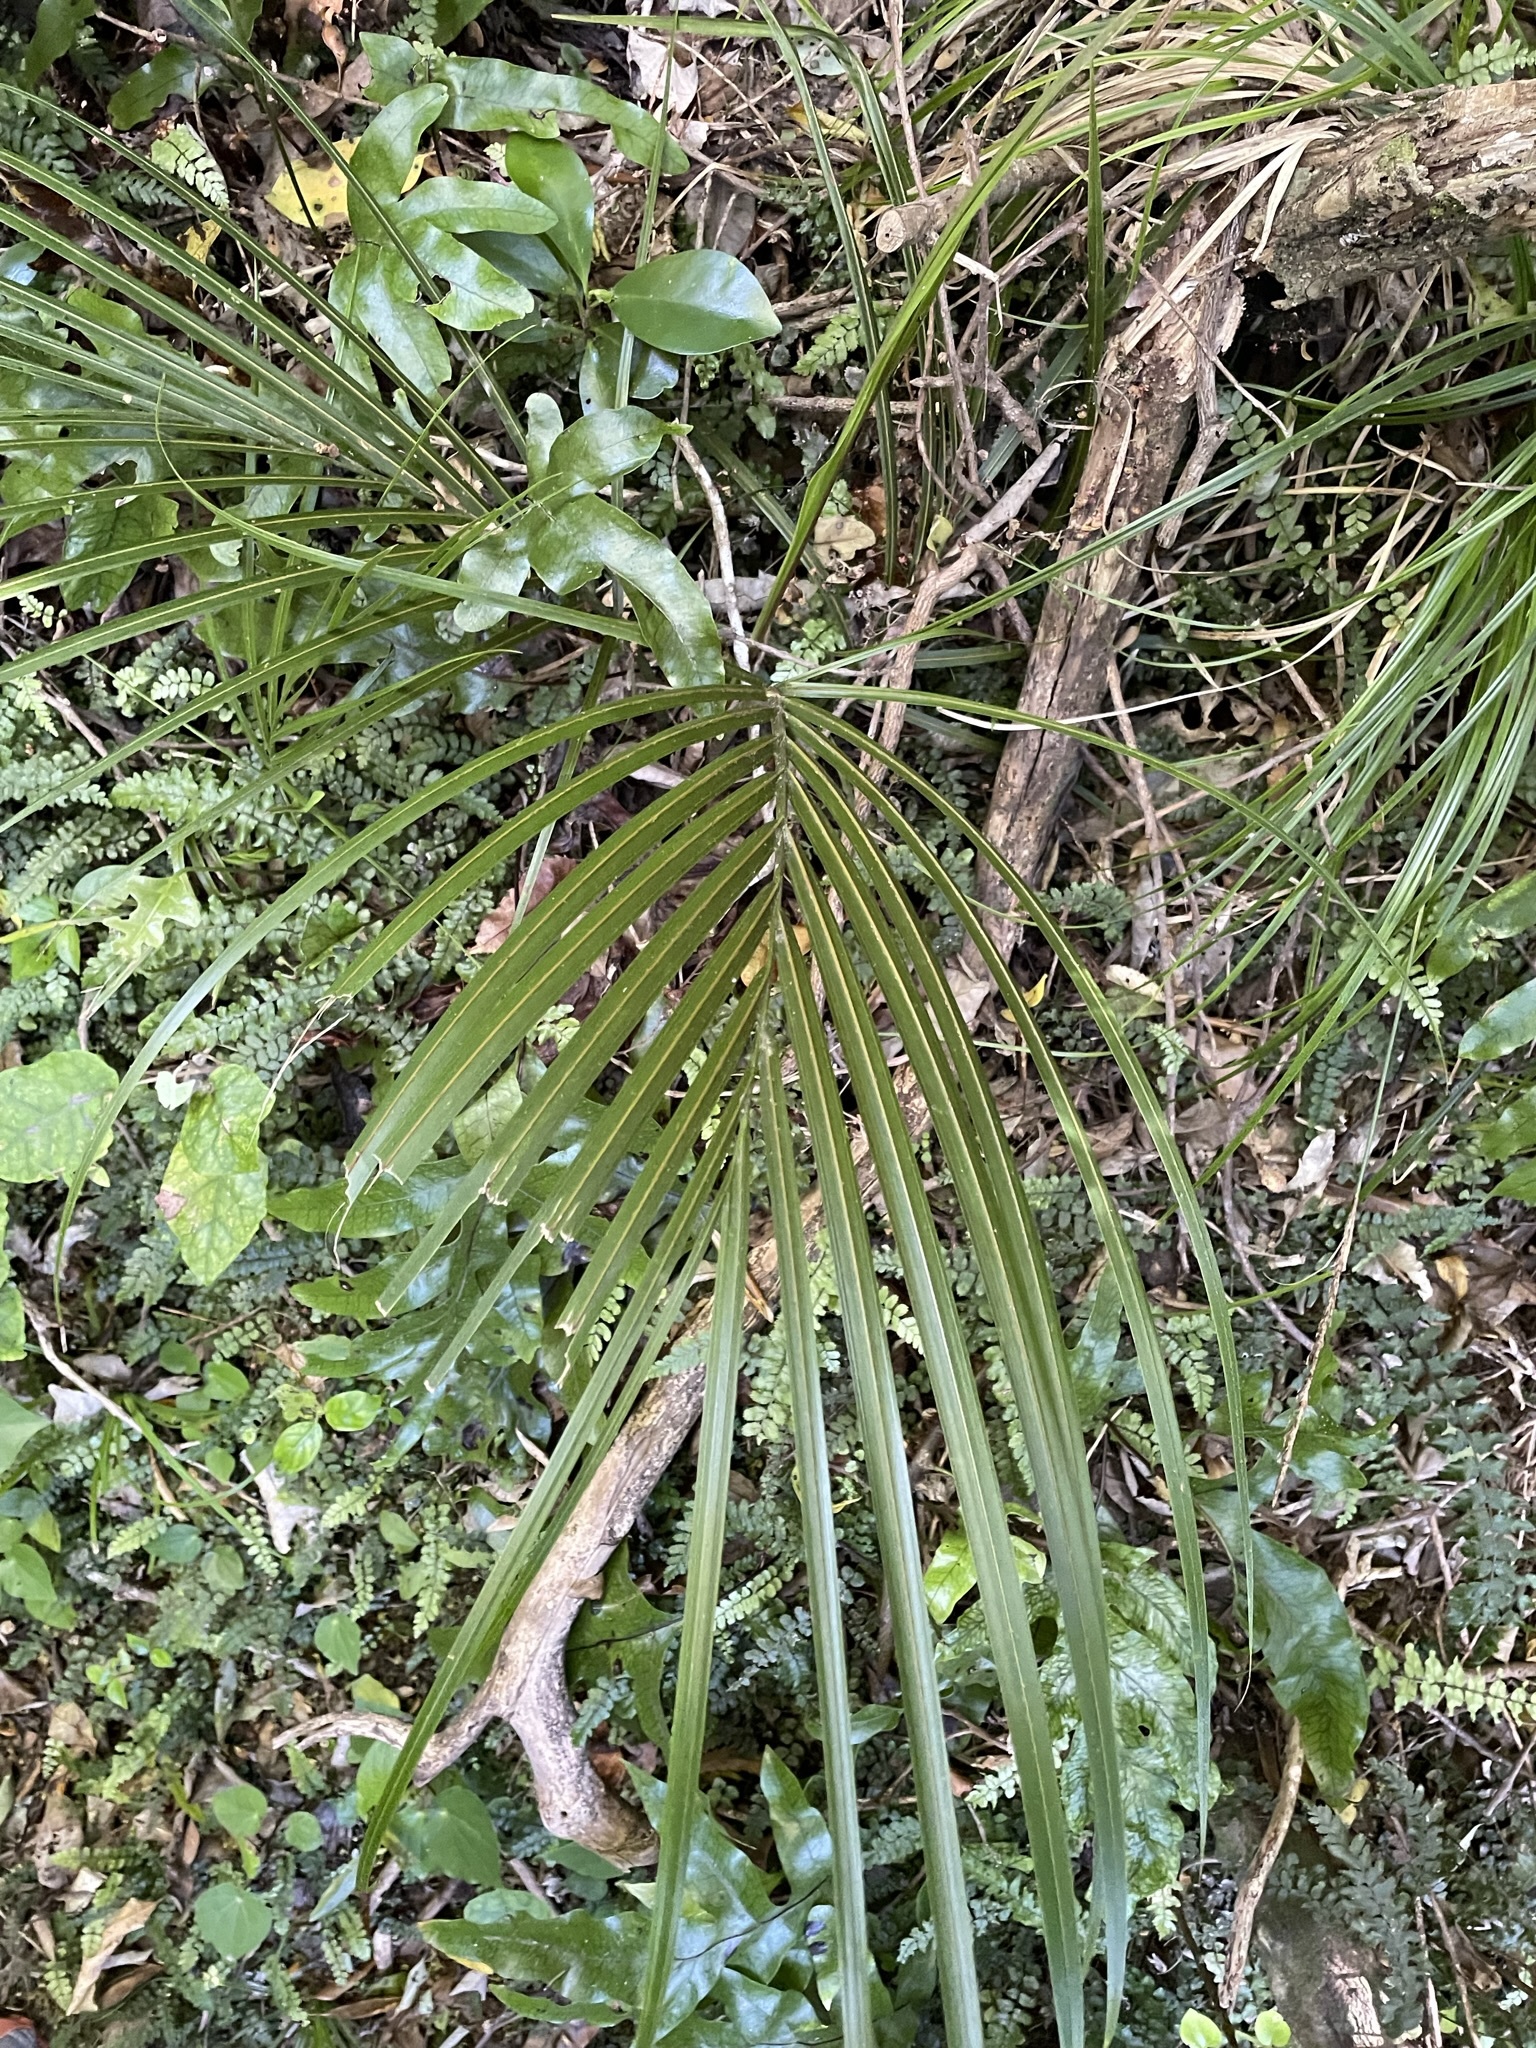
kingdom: Plantae
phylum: Tracheophyta
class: Liliopsida
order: Arecales
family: Arecaceae
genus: Rhopalostylis
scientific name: Rhopalostylis sapida
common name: Feather-duster palm
